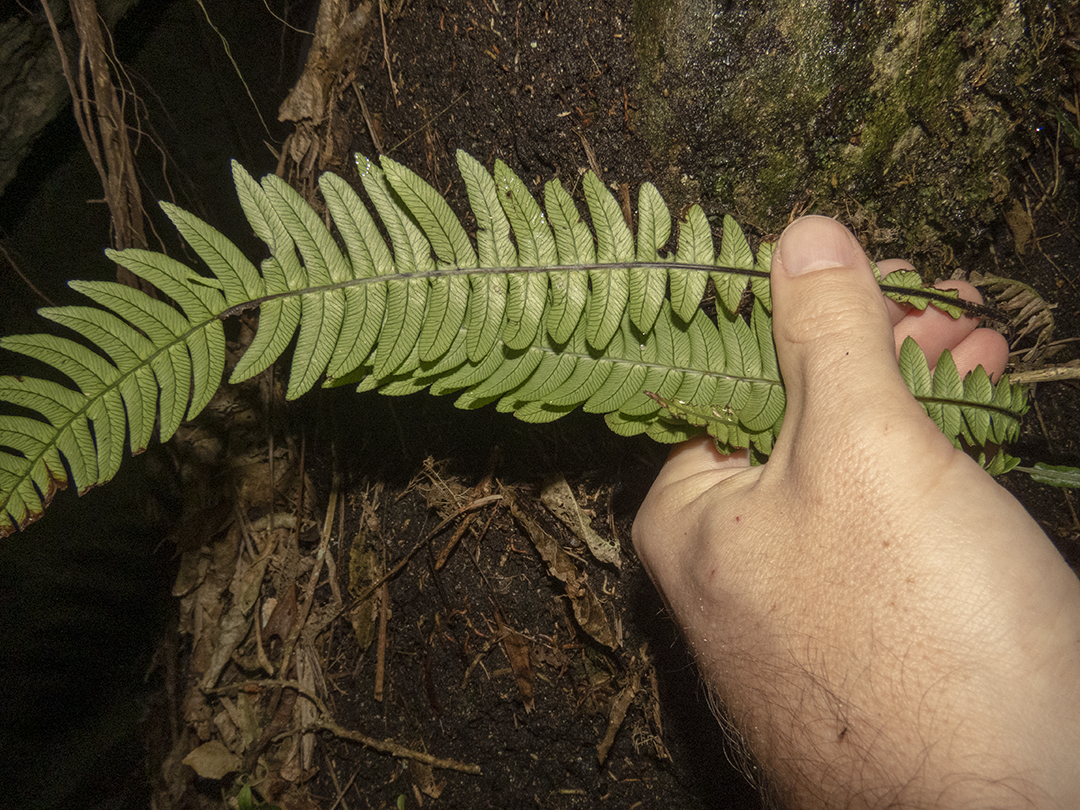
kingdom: Plantae
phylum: Tracheophyta
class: Polypodiopsida
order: Polypodiales
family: Blechnaceae
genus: Austroblechnum
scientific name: Austroblechnum lanceolatum
